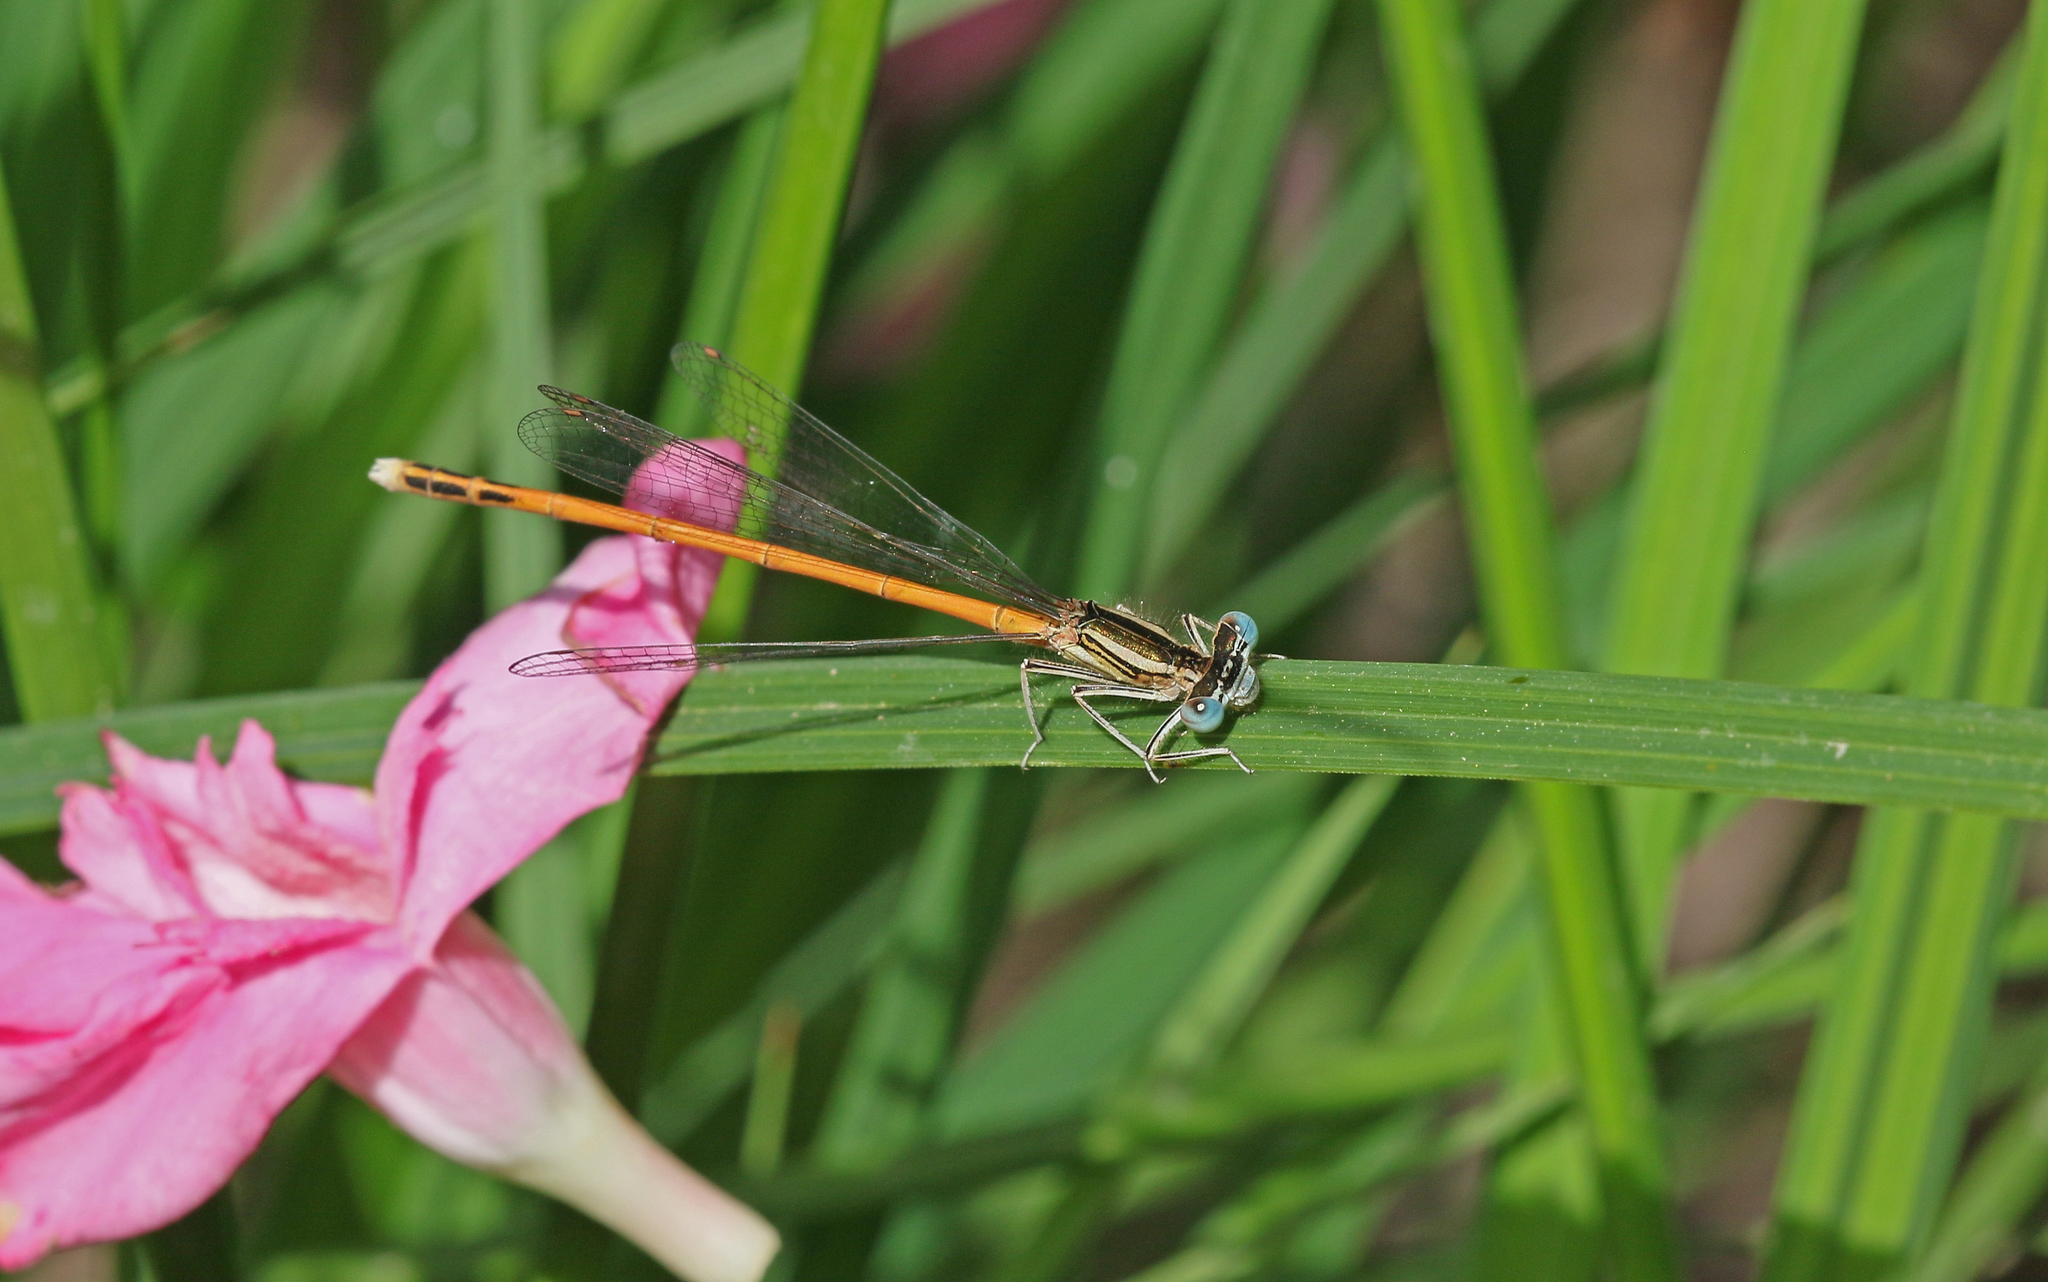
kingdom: Animalia
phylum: Arthropoda
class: Insecta
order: Odonata
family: Platycnemididae
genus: Platycnemis
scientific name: Platycnemis acutipennis
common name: Orange featherleg
